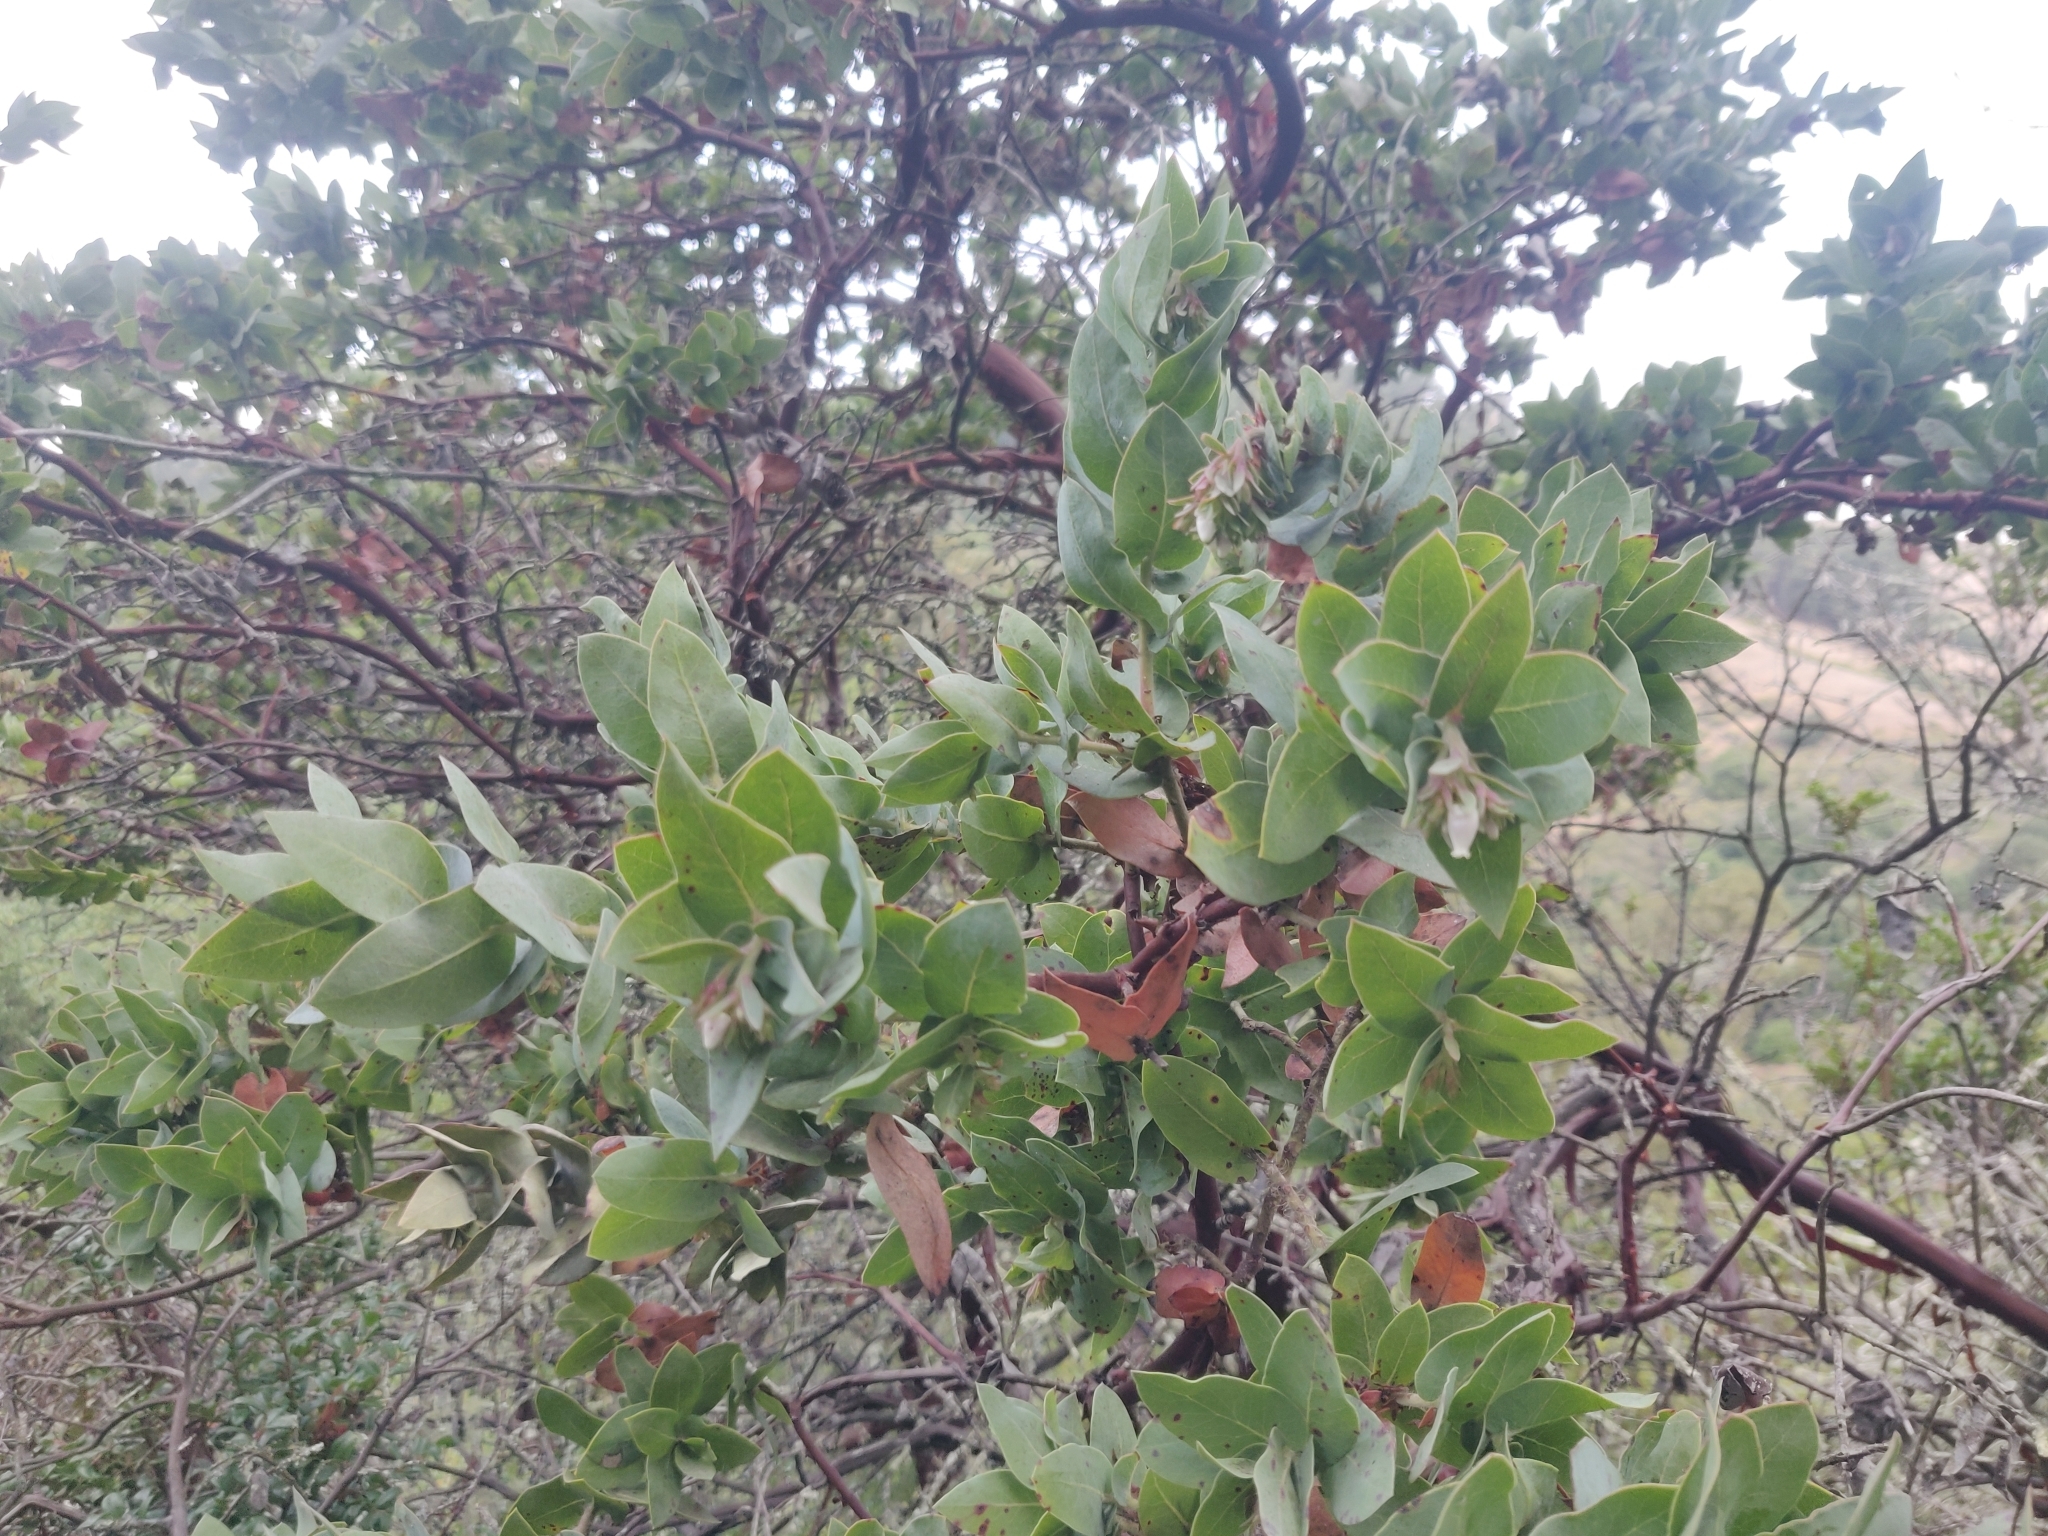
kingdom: Plantae
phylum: Tracheophyta
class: Magnoliopsida
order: Ericales
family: Ericaceae
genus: Arctostaphylos
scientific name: Arctostaphylos pallida
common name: Pallid manzanita
